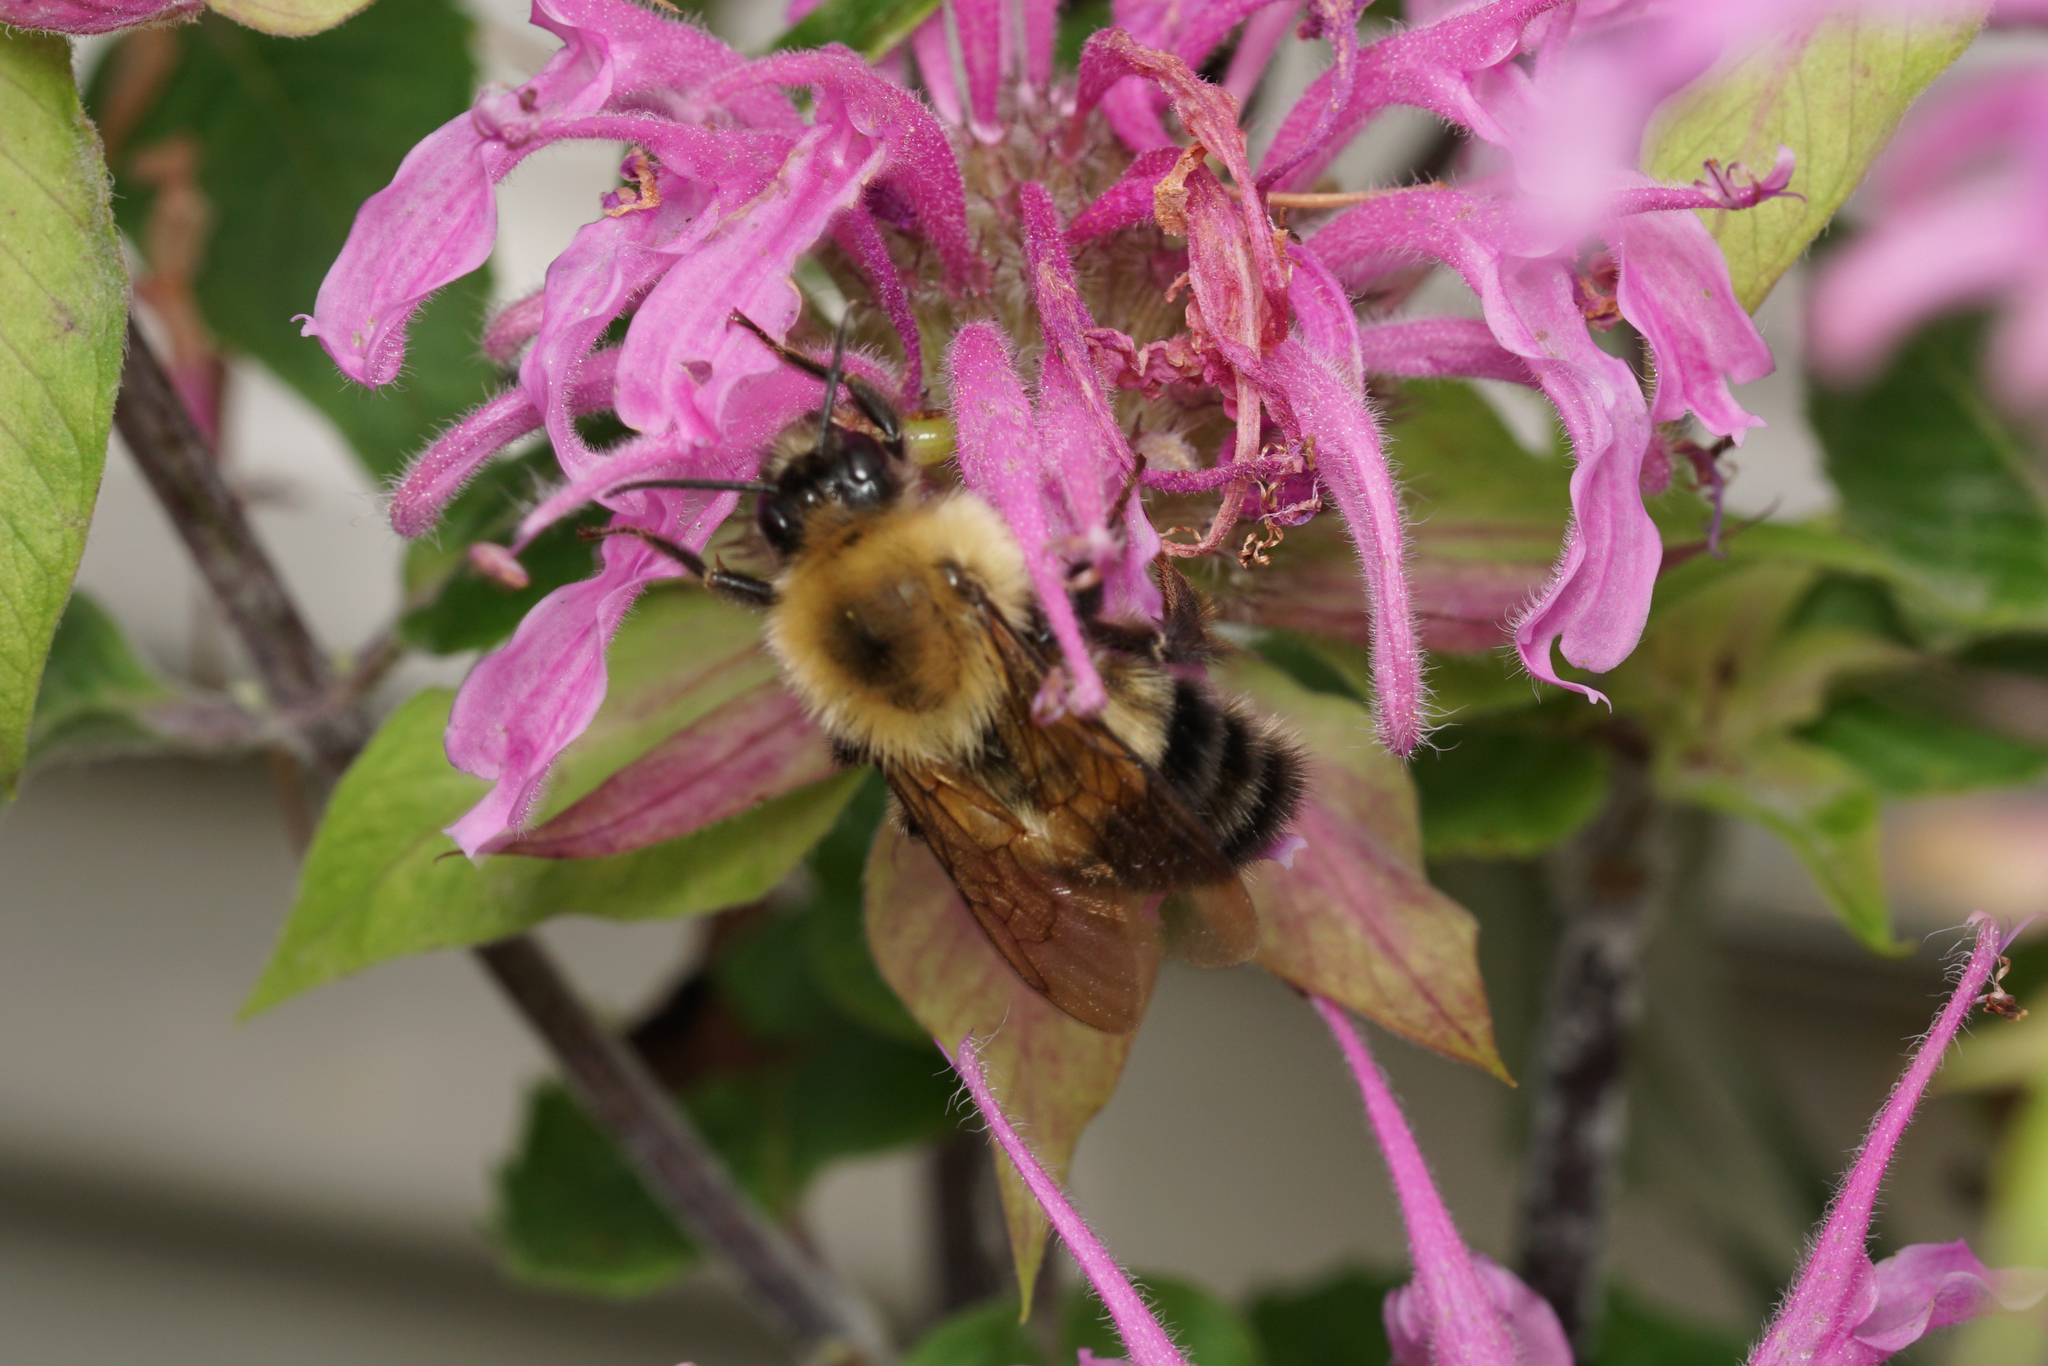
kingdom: Animalia
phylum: Arthropoda
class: Insecta
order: Hymenoptera
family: Apidae
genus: Bombus
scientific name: Bombus bimaculatus
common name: Two-spotted bumble bee
